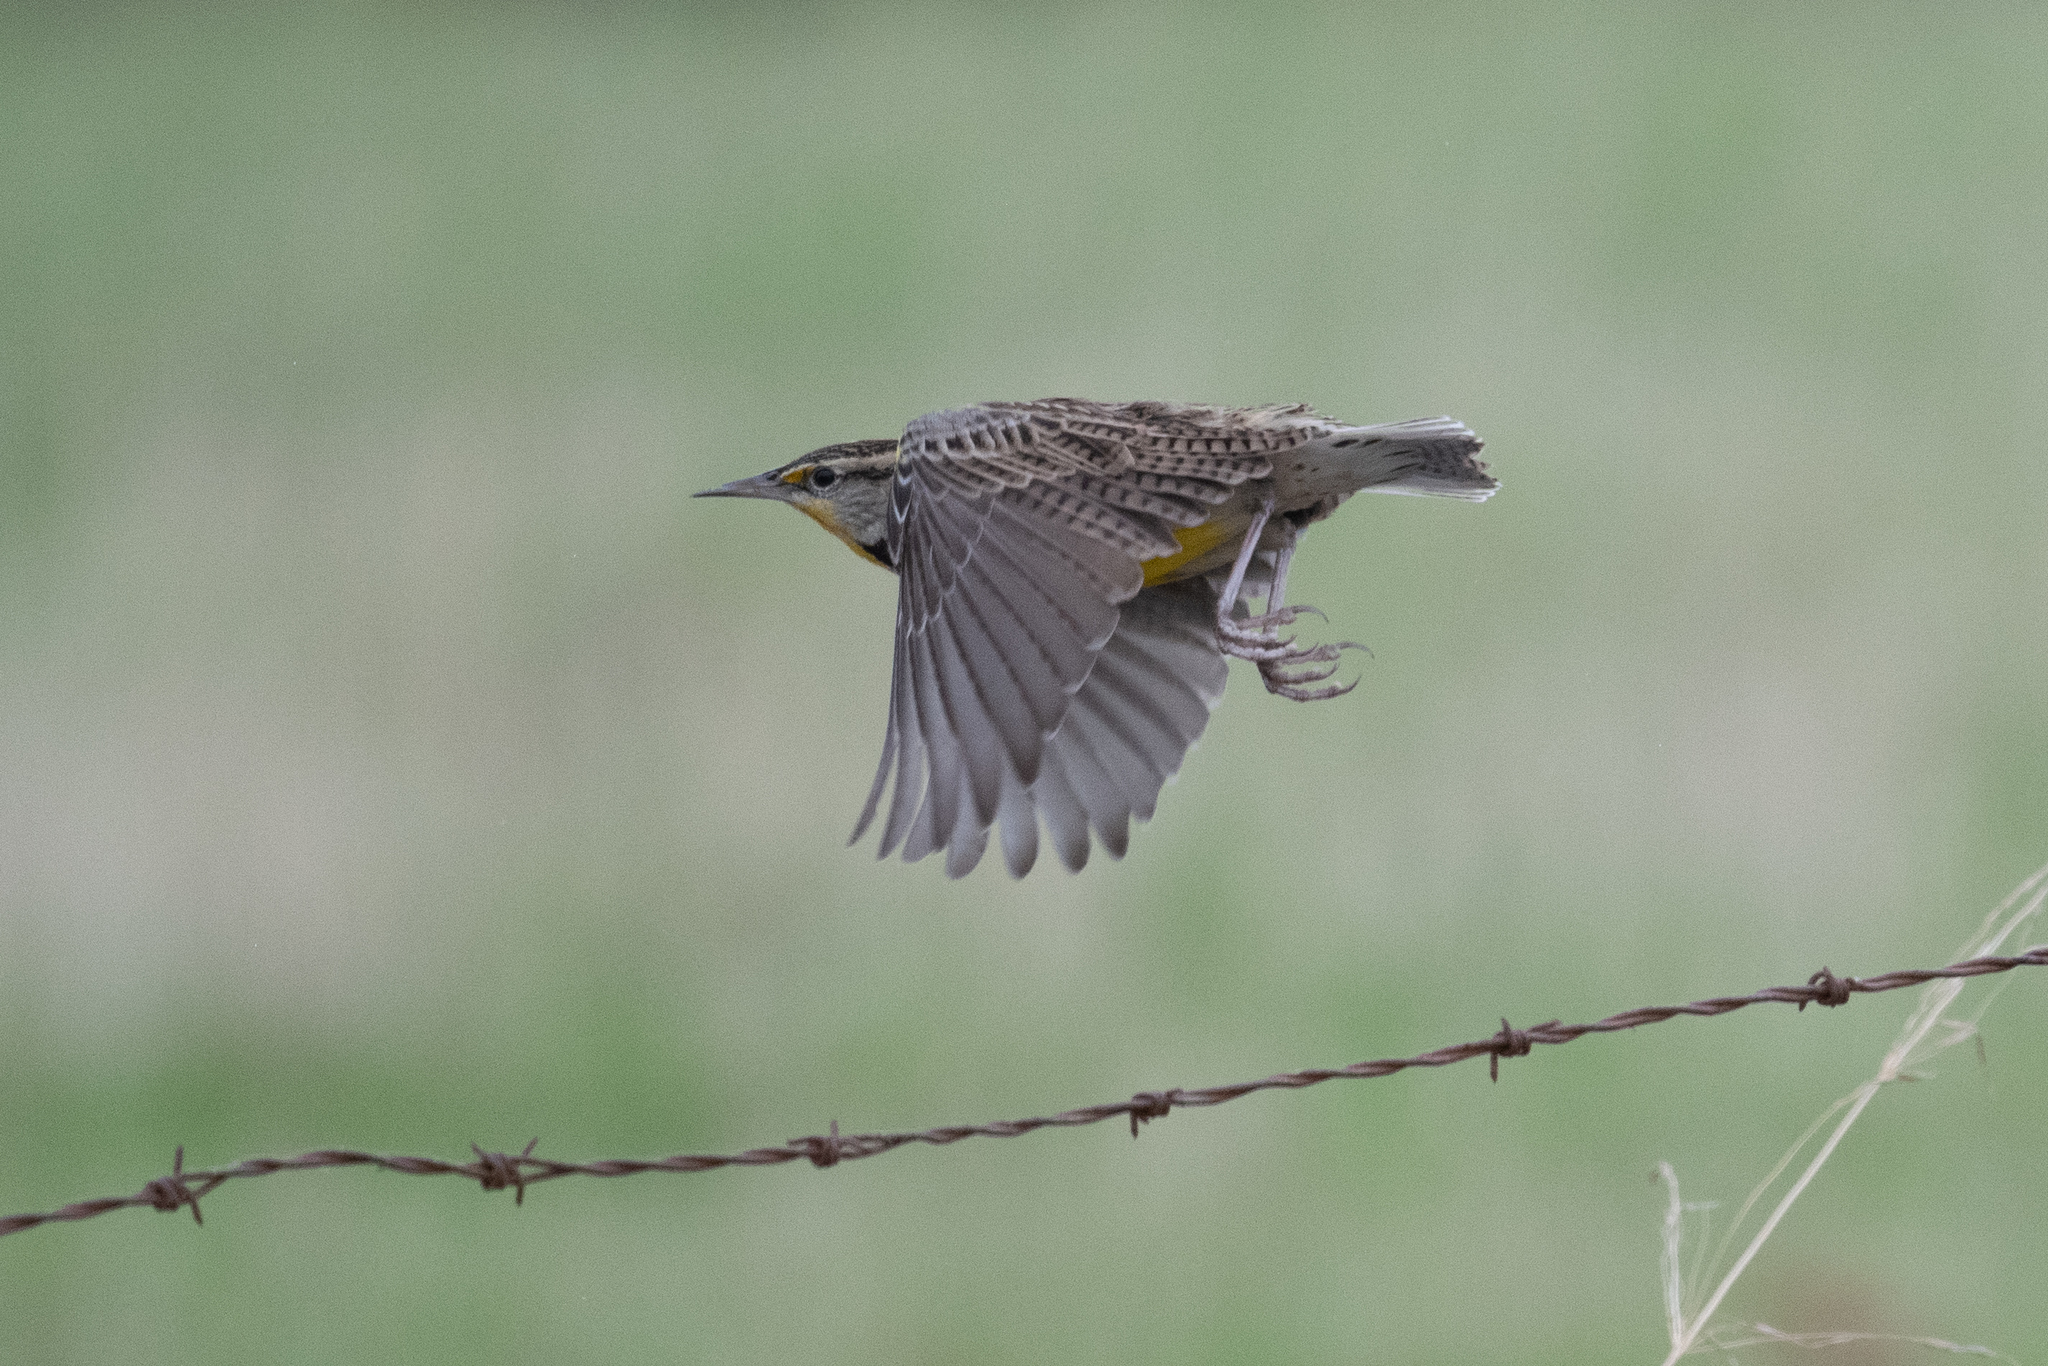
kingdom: Animalia
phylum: Chordata
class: Aves
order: Passeriformes
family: Icteridae
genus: Sturnella
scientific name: Sturnella neglecta
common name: Western meadowlark
